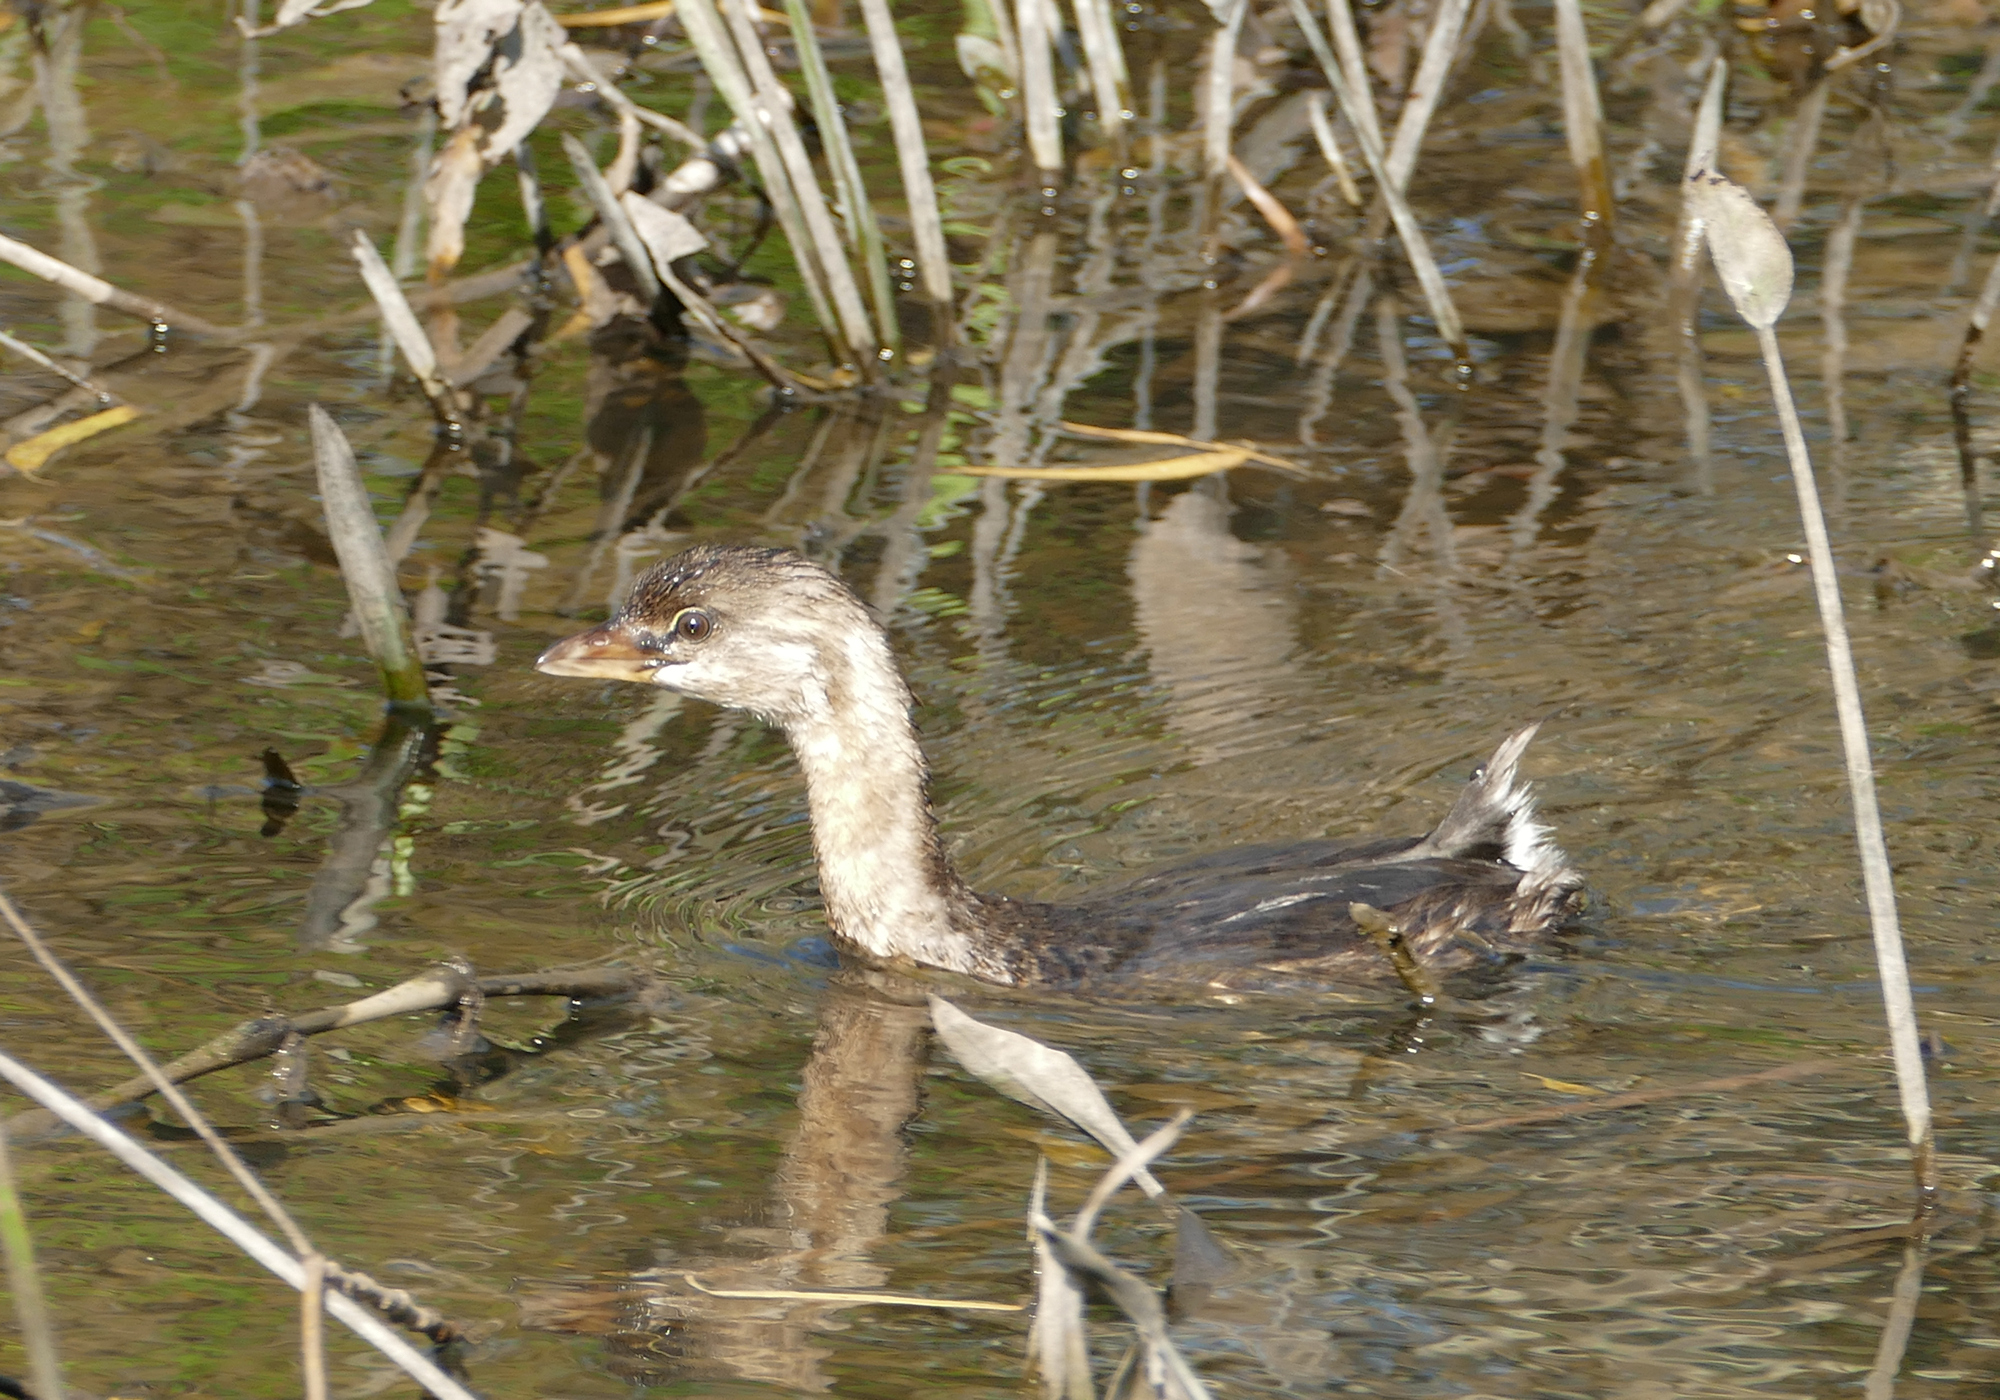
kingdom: Animalia
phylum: Chordata
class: Aves
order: Podicipediformes
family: Podicipedidae
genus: Podilymbus
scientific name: Podilymbus podiceps
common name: Pied-billed grebe
